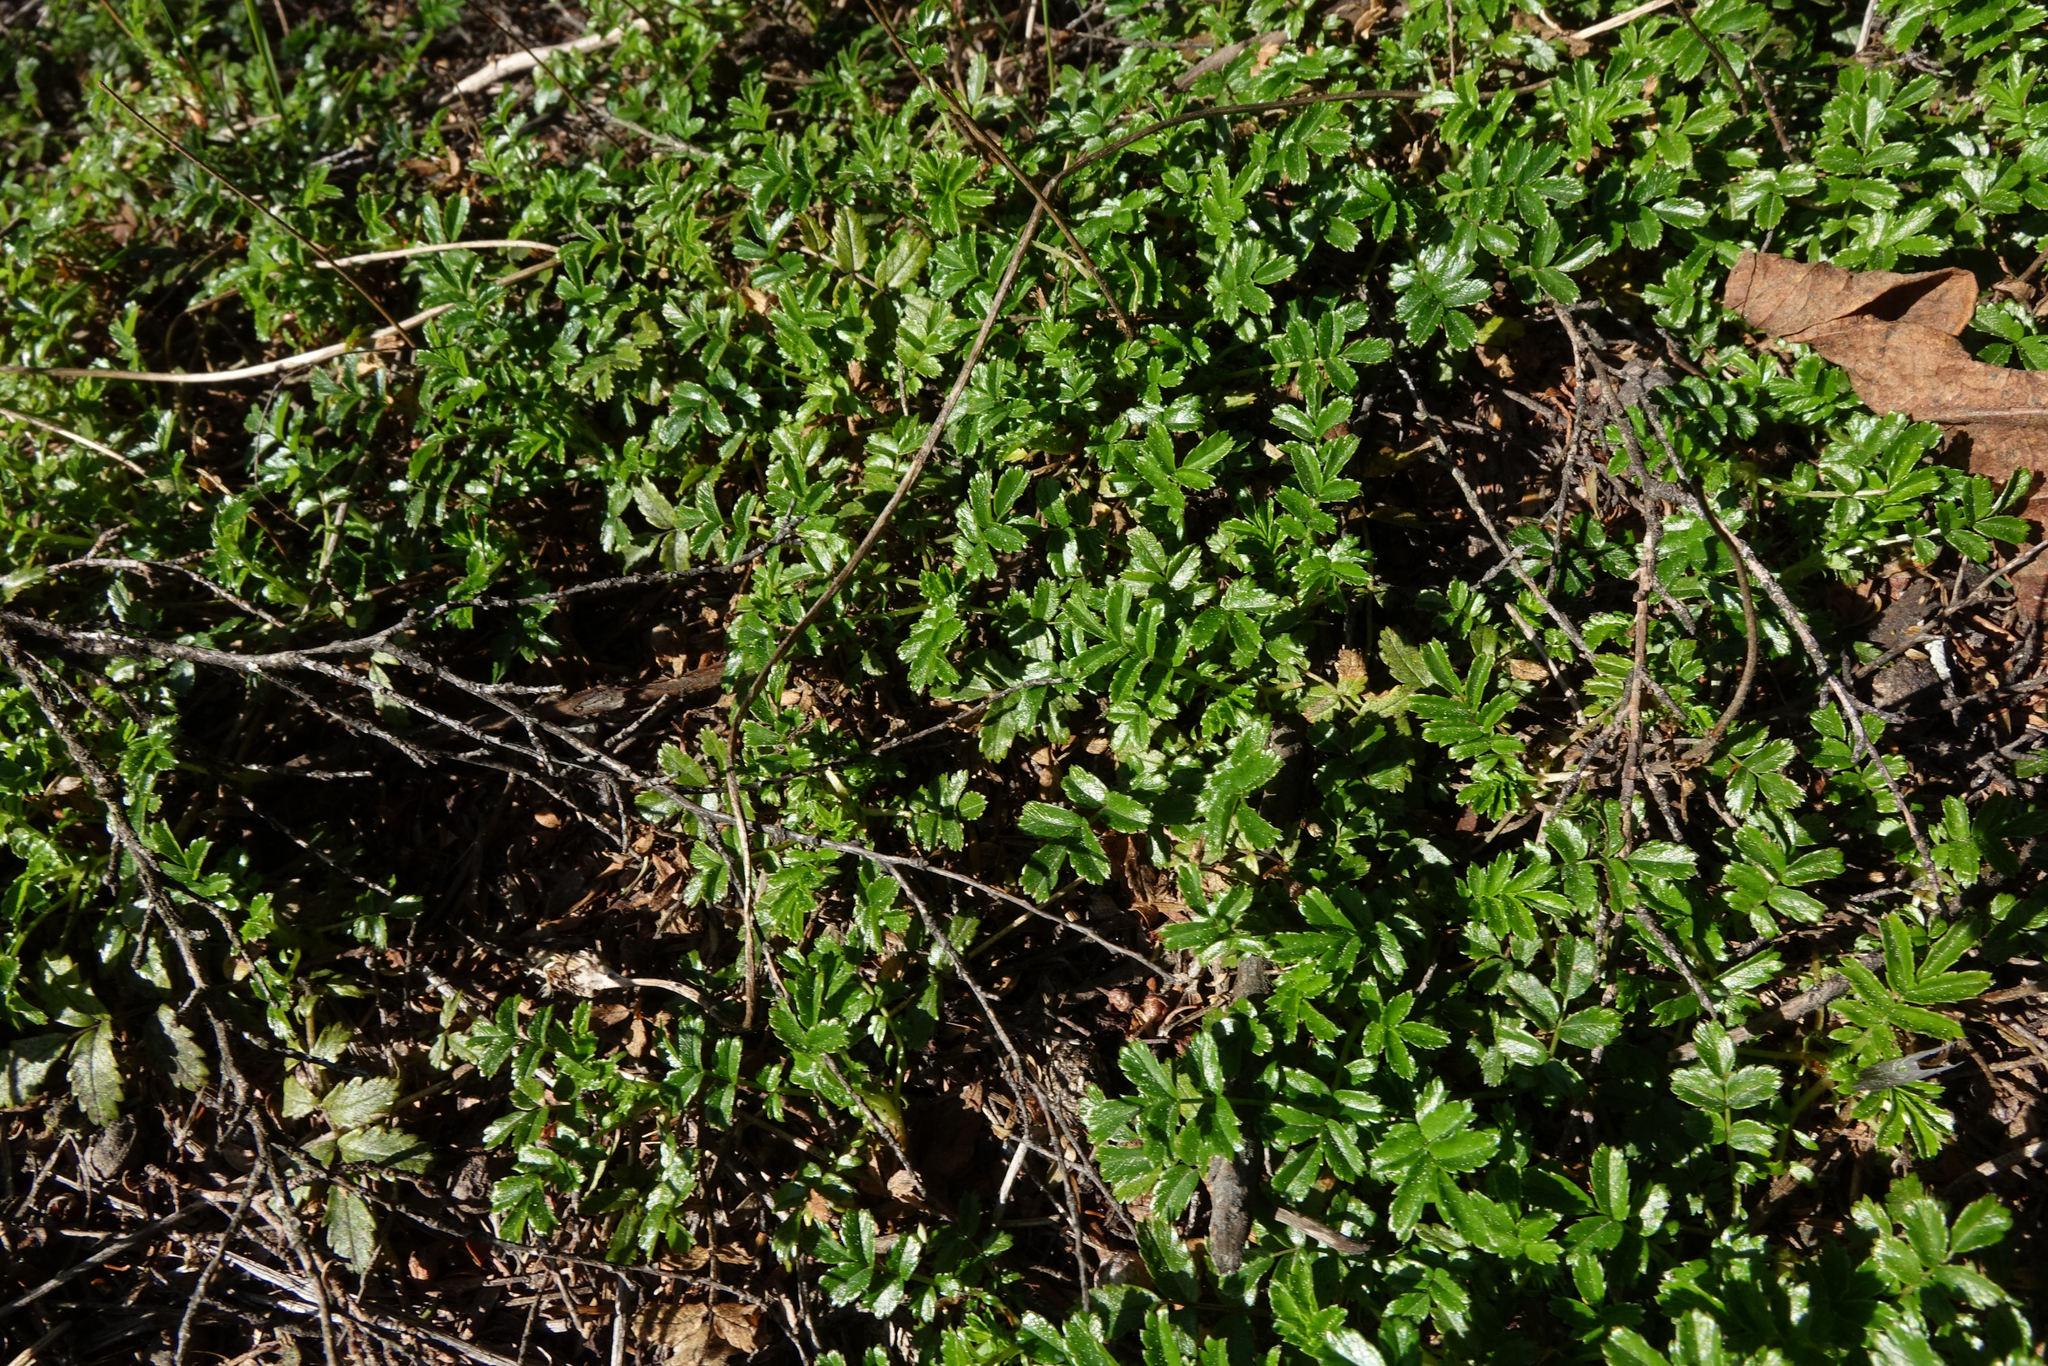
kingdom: Plantae
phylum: Tracheophyta
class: Magnoliopsida
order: Rosales
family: Rosaceae
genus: Acaena
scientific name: Acaena novae-zelandiae
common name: Pirri-pirri-bur
